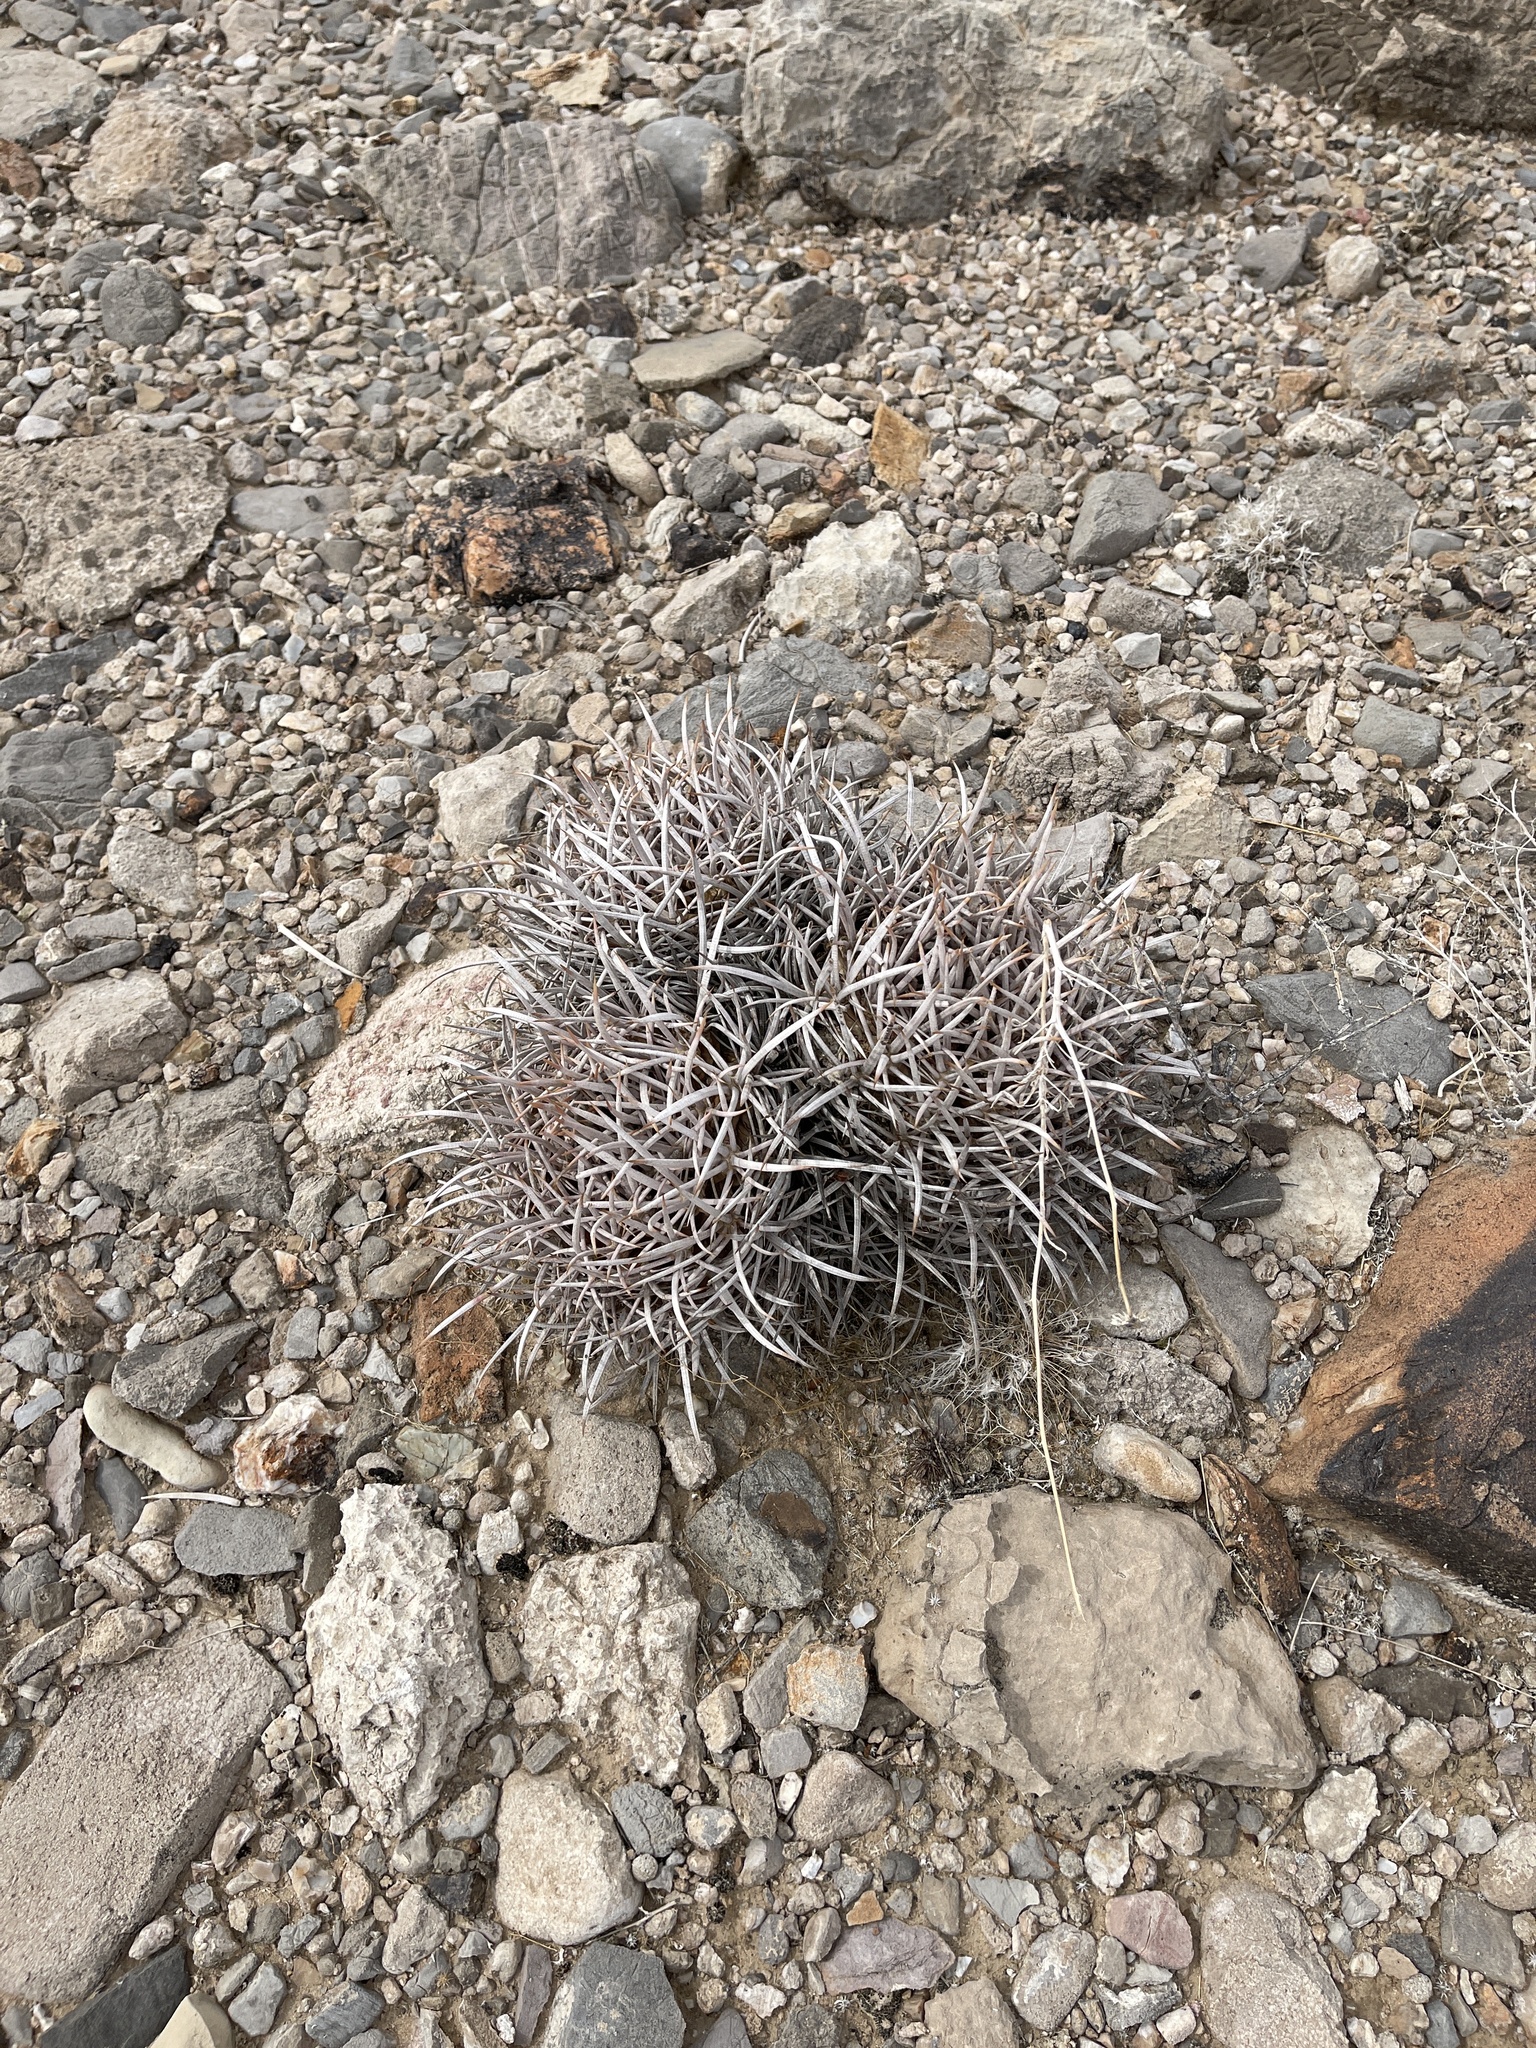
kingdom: Plantae
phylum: Tracheophyta
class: Magnoliopsida
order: Caryophyllales
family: Cactaceae
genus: Echinocactus
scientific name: Echinocactus polycephalus
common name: Cottontop cactus
